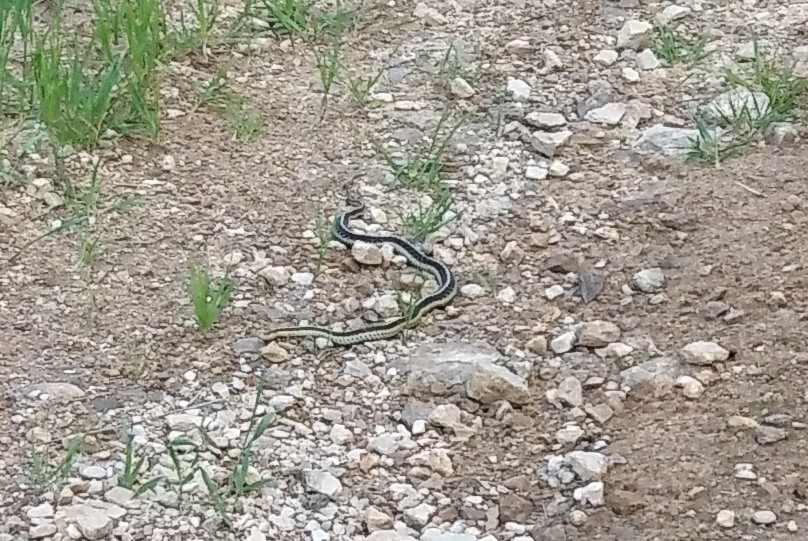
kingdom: Animalia
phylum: Chordata
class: Squamata
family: Colubridae
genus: Thamnophis
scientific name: Thamnophis sirtalis
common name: Common garter snake
